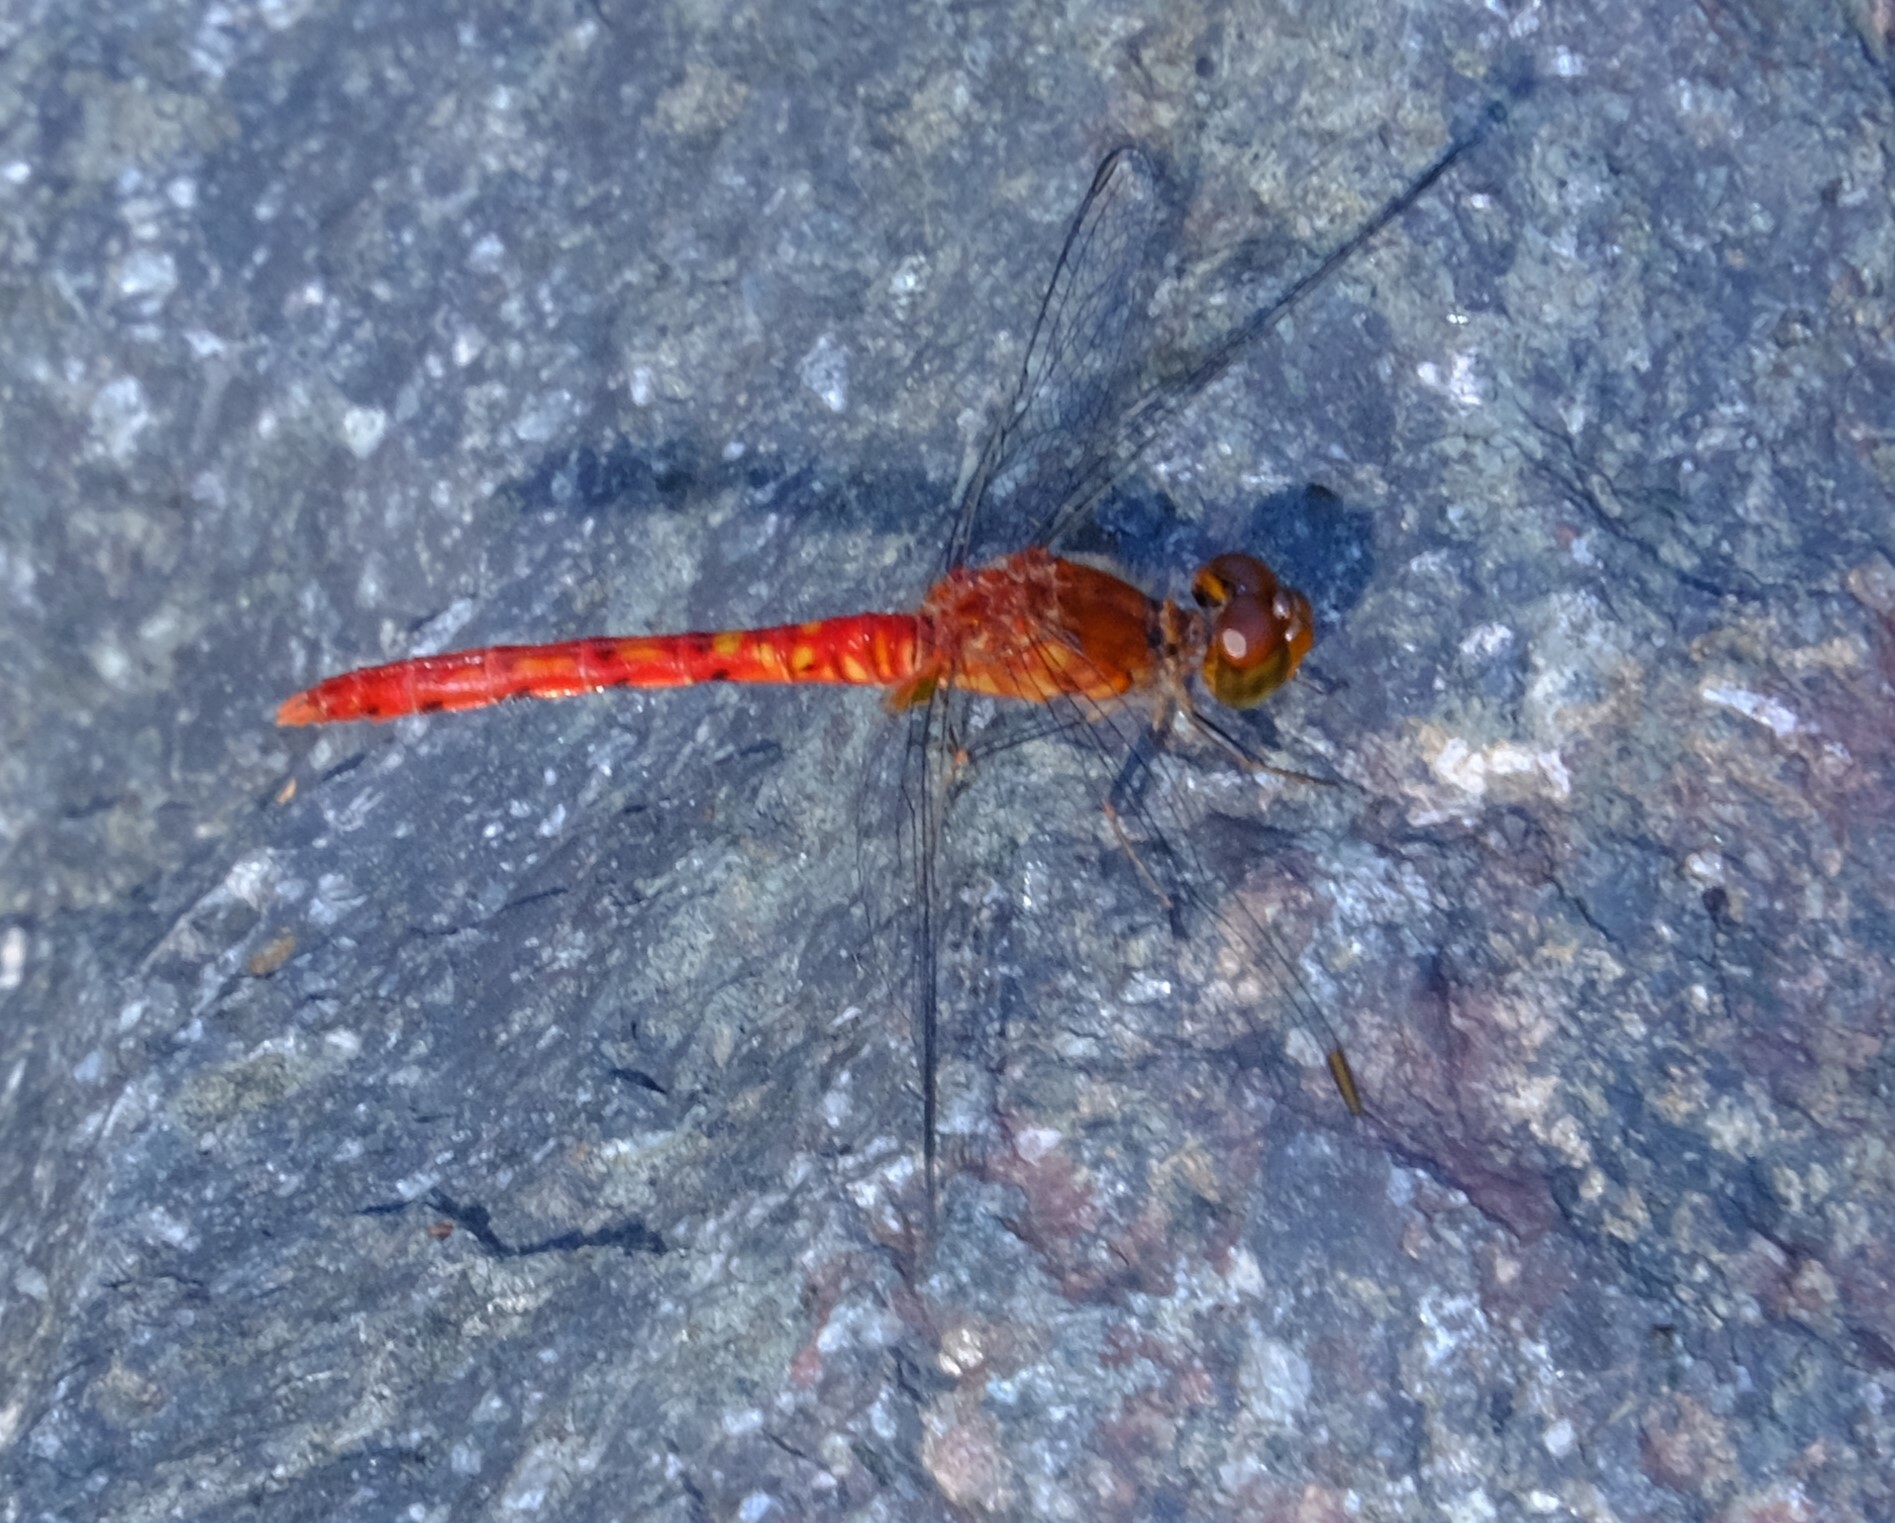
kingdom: Animalia
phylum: Arthropoda
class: Insecta
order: Odonata
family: Libellulidae
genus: Nannodiplax
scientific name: Nannodiplax rubra
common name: Pygmy percher
